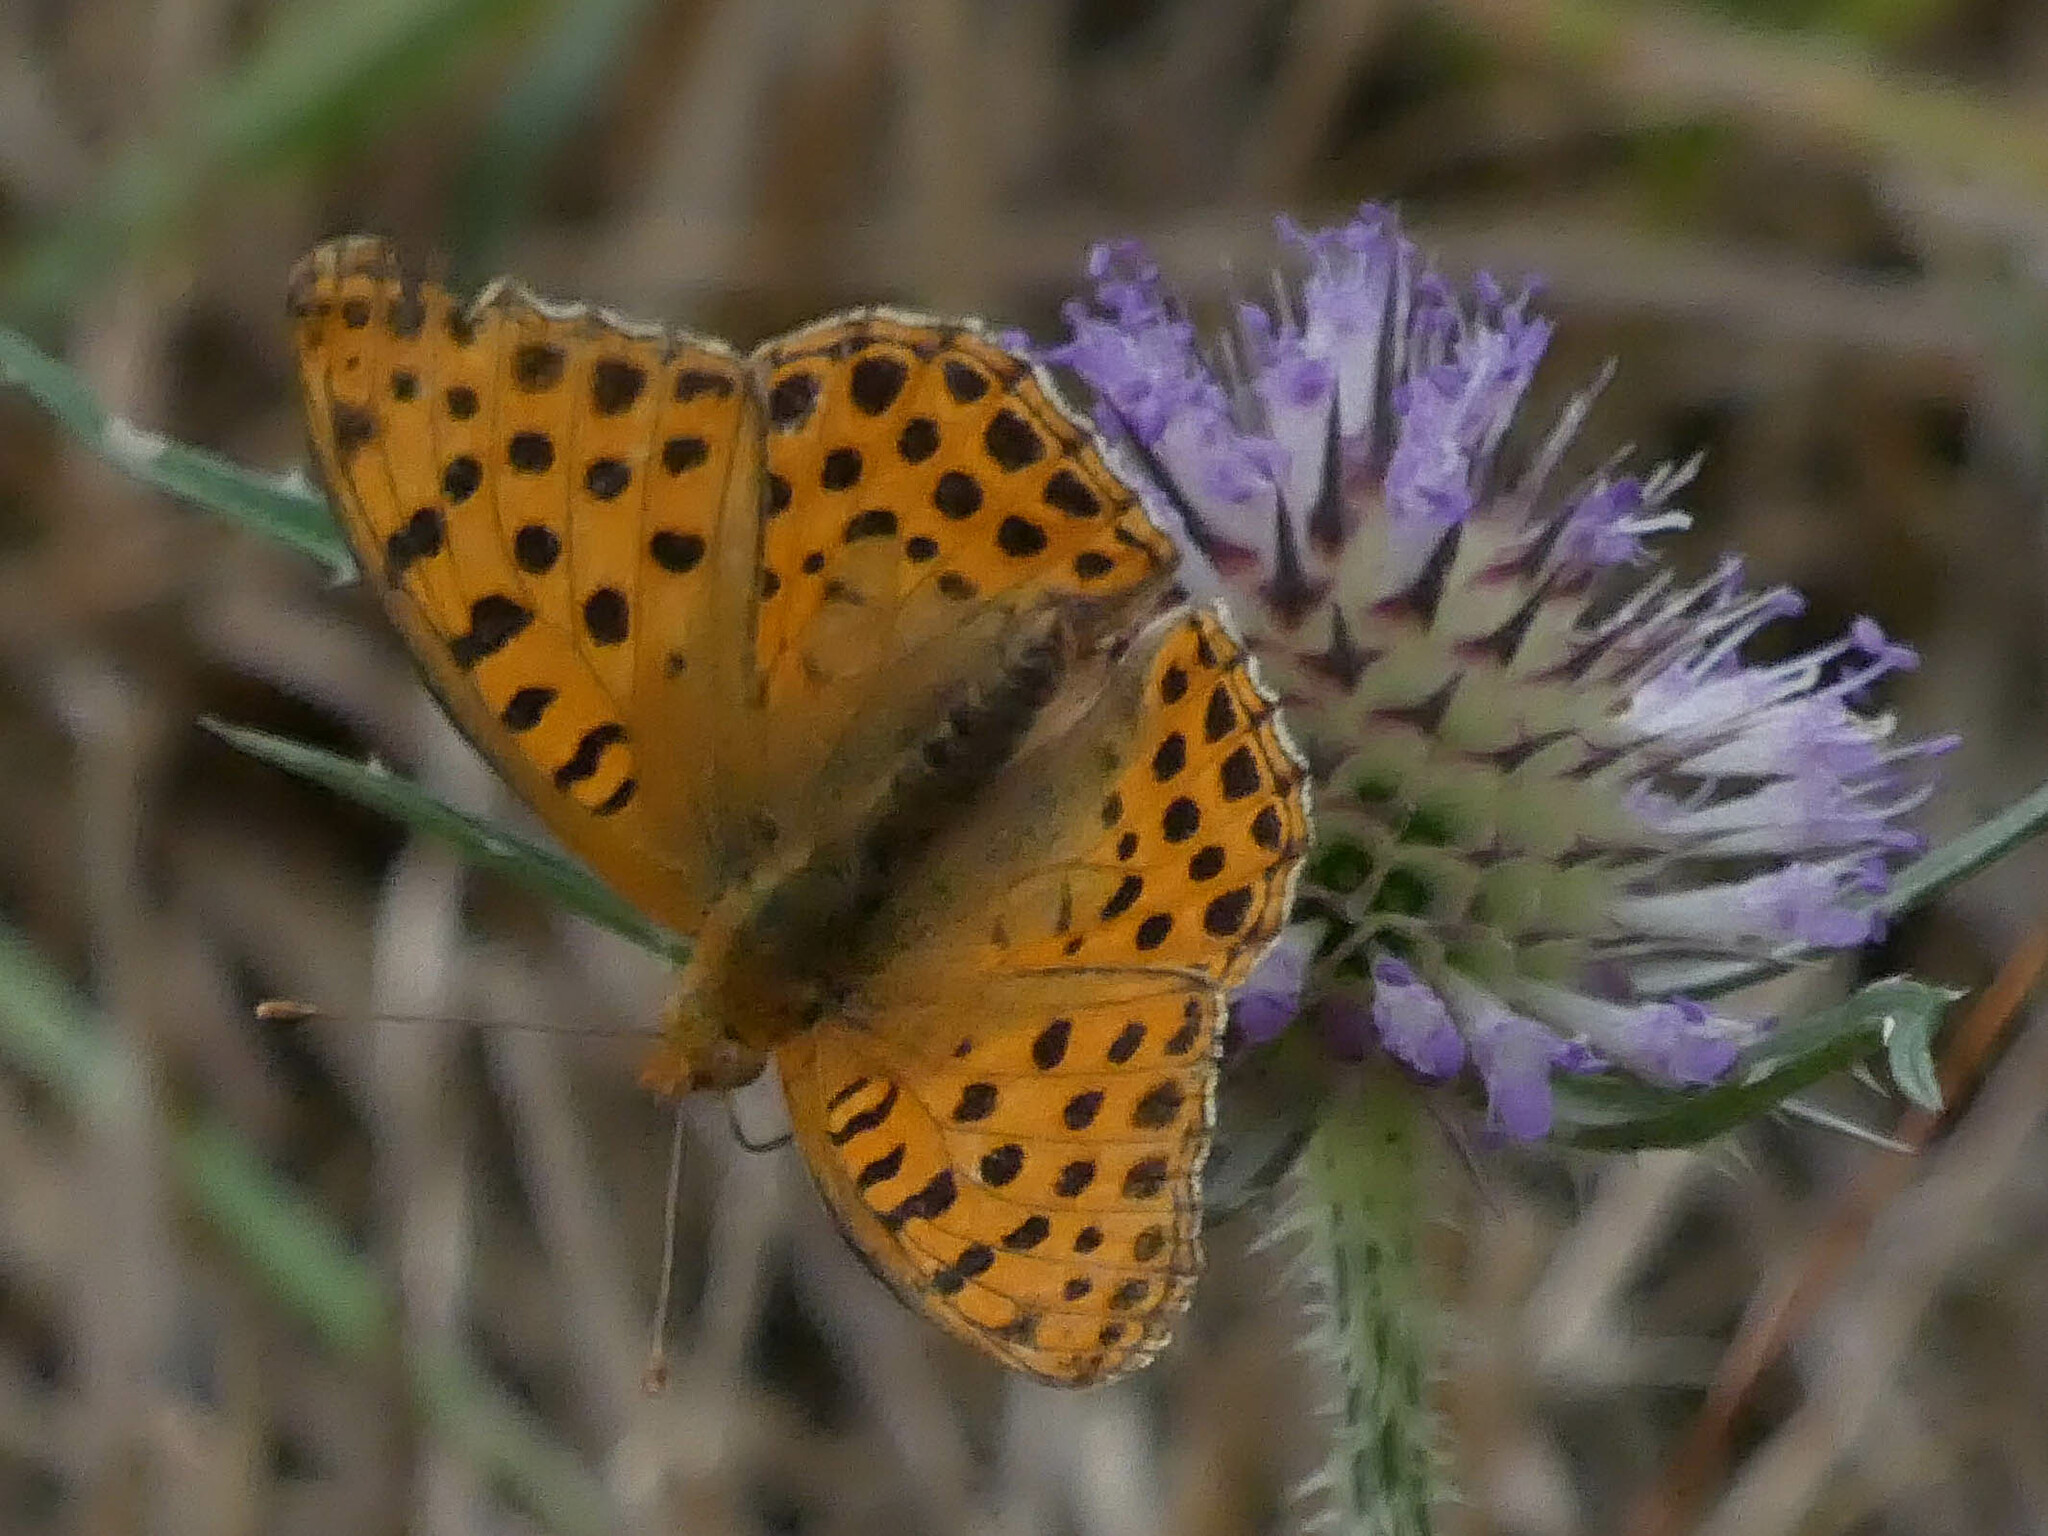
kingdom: Animalia
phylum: Arthropoda
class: Insecta
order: Lepidoptera
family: Nymphalidae
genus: Issoria
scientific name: Issoria lathonia
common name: Queen of spain fritillary
